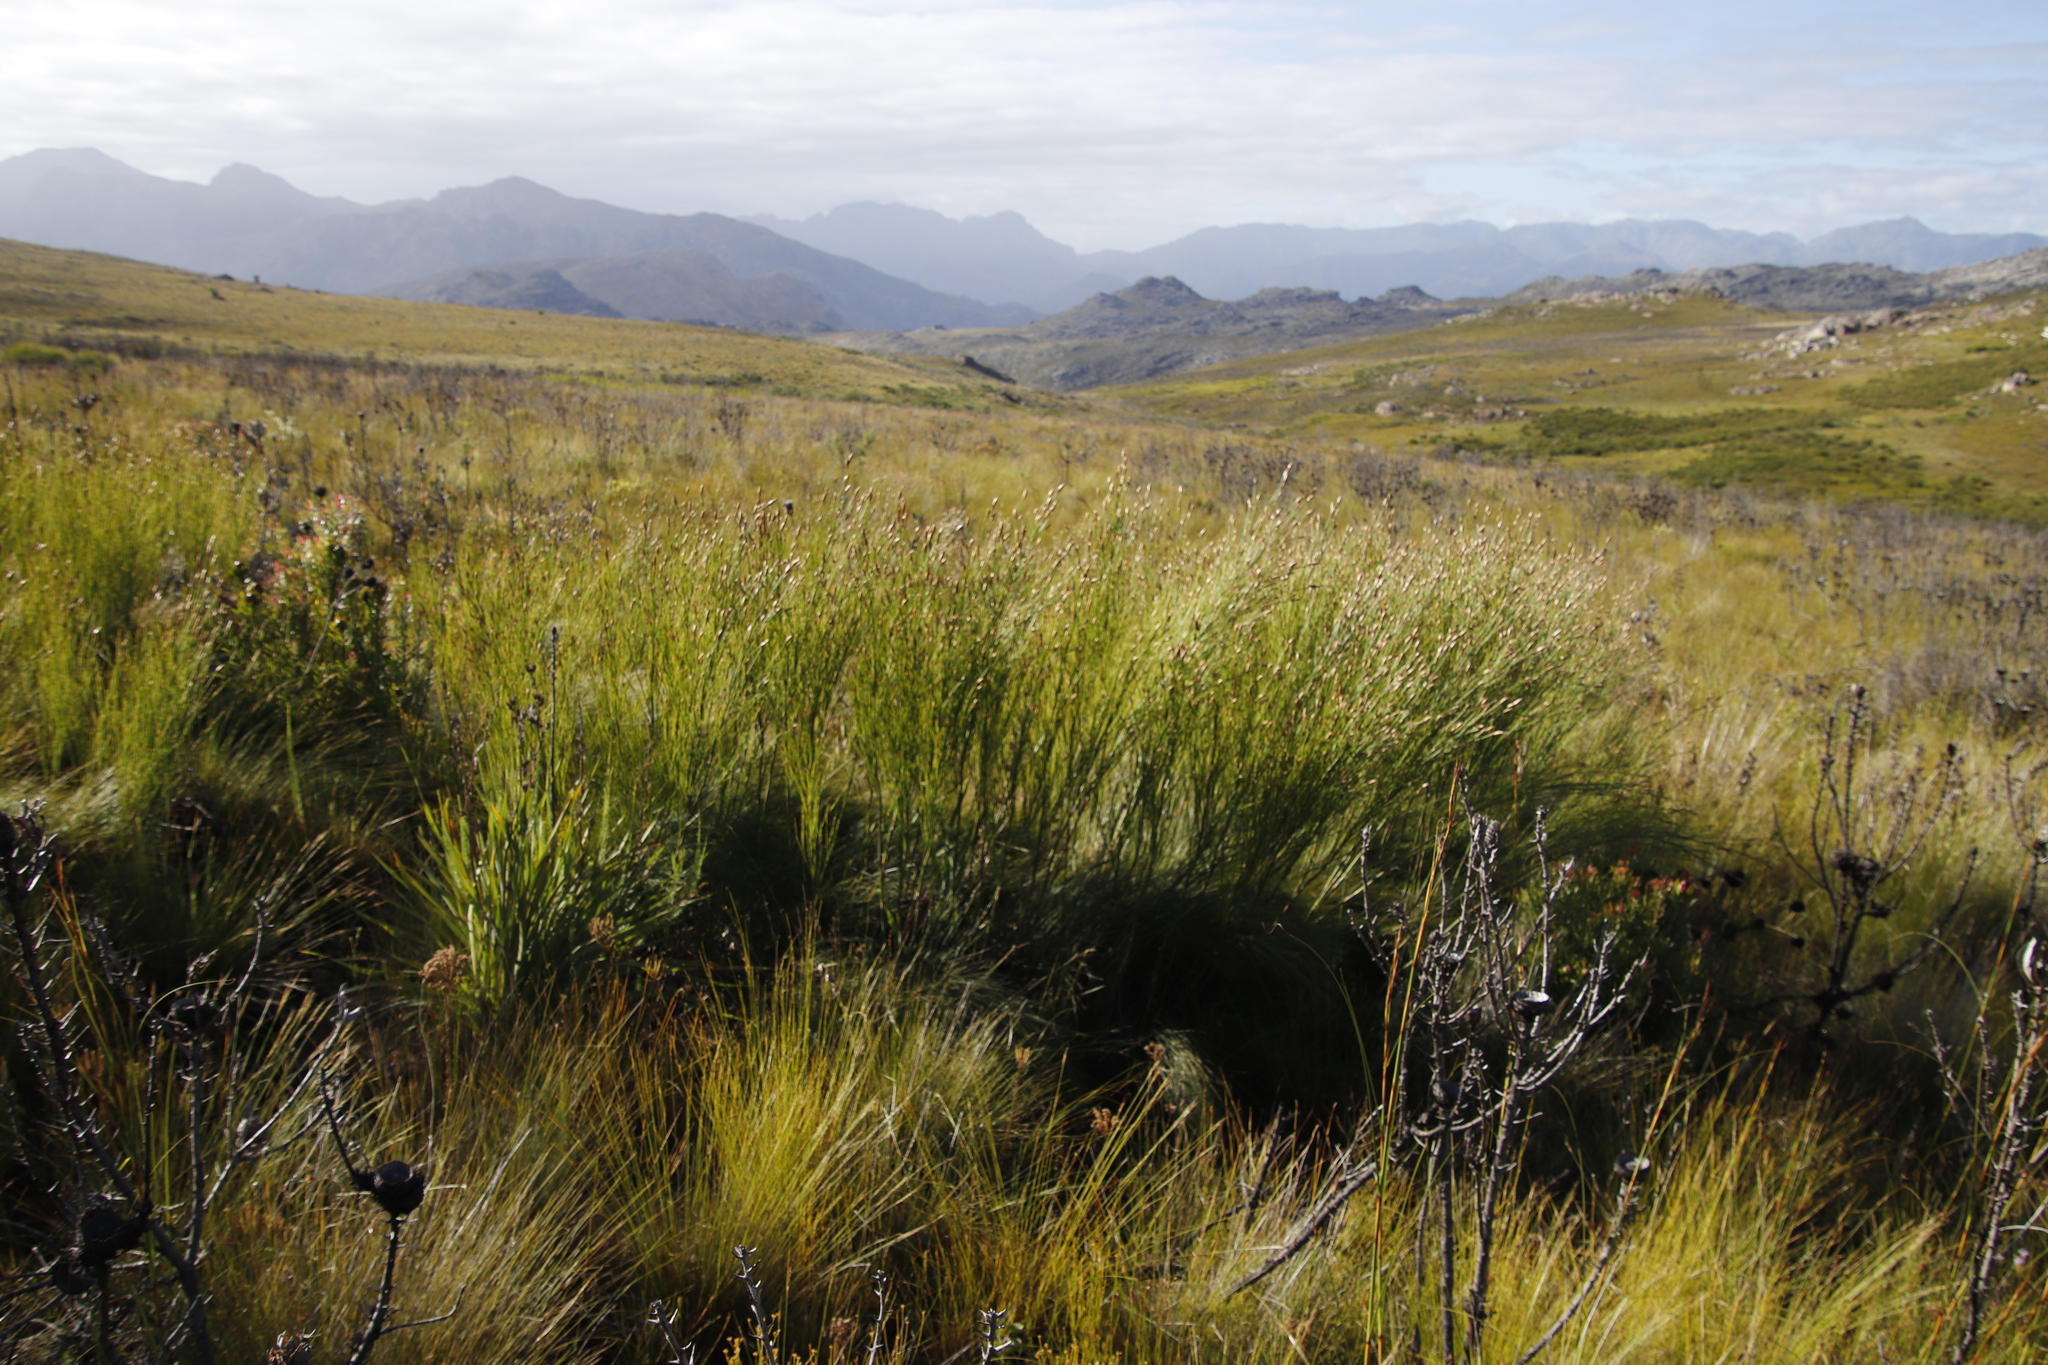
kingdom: Plantae
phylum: Tracheophyta
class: Liliopsida
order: Poales
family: Restionaceae
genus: Cannomois
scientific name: Cannomois virgata
